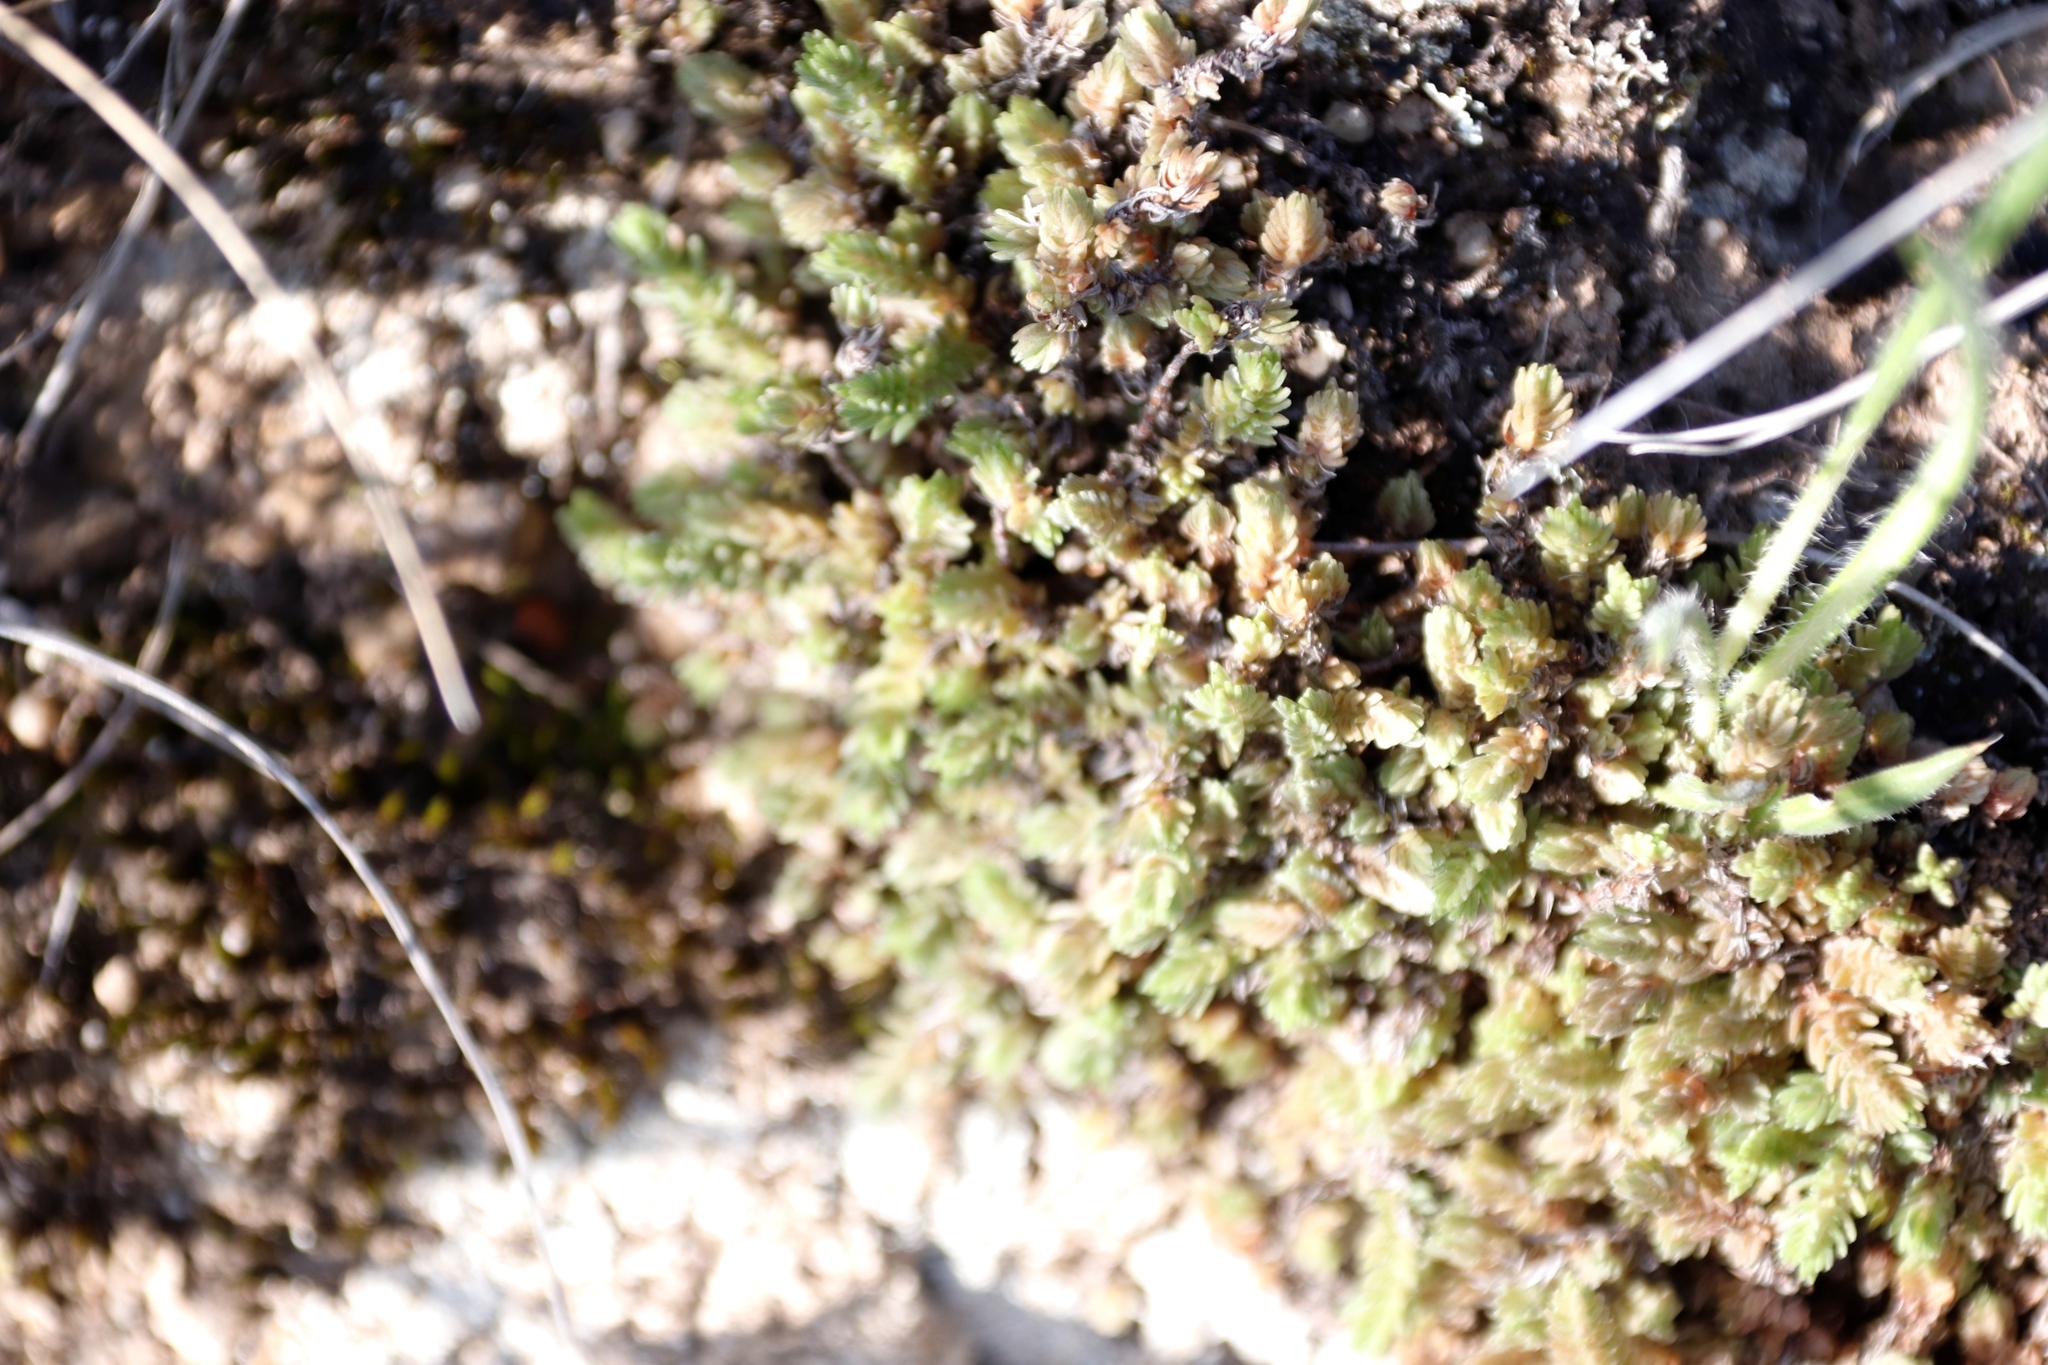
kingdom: Plantae
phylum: Tracheophyta
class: Magnoliopsida
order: Saxifragales
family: Crassulaceae
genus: Crassula
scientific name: Crassula lanceolata
